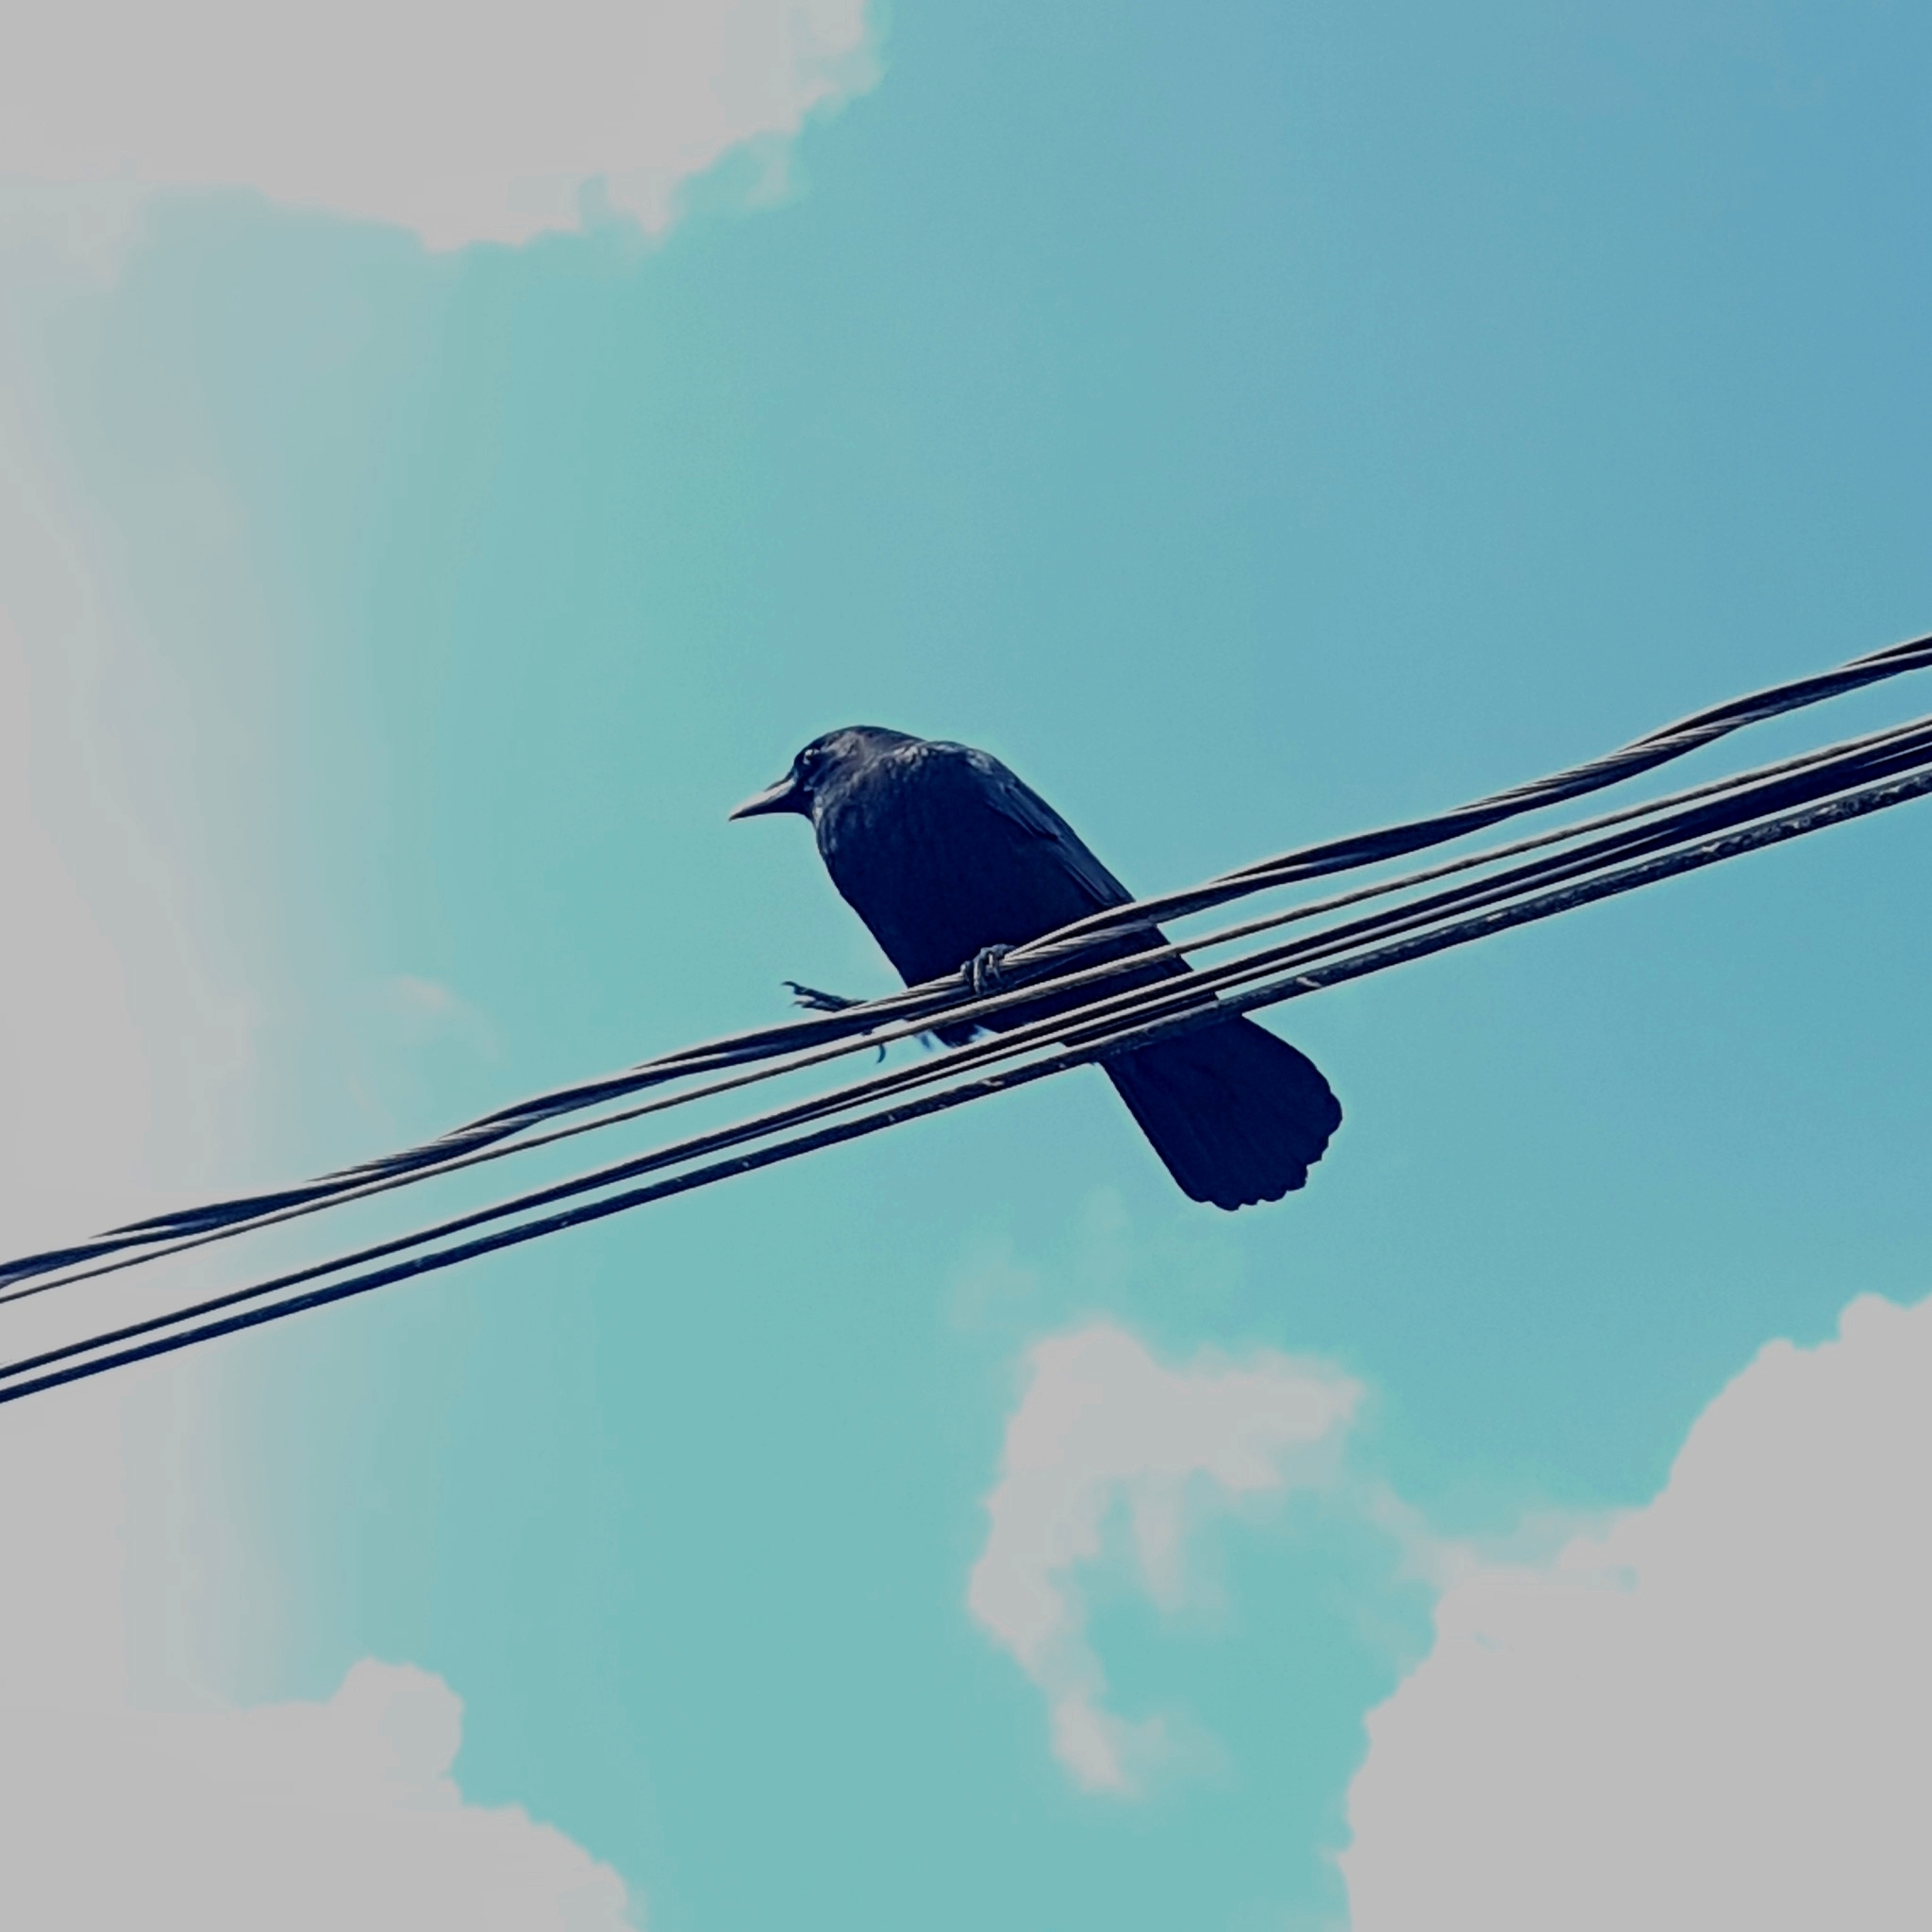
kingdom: Animalia
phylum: Chordata
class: Aves
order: Passeriformes
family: Corvidae
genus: Corvus
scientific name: Corvus brachyrhynchos
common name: American crow
